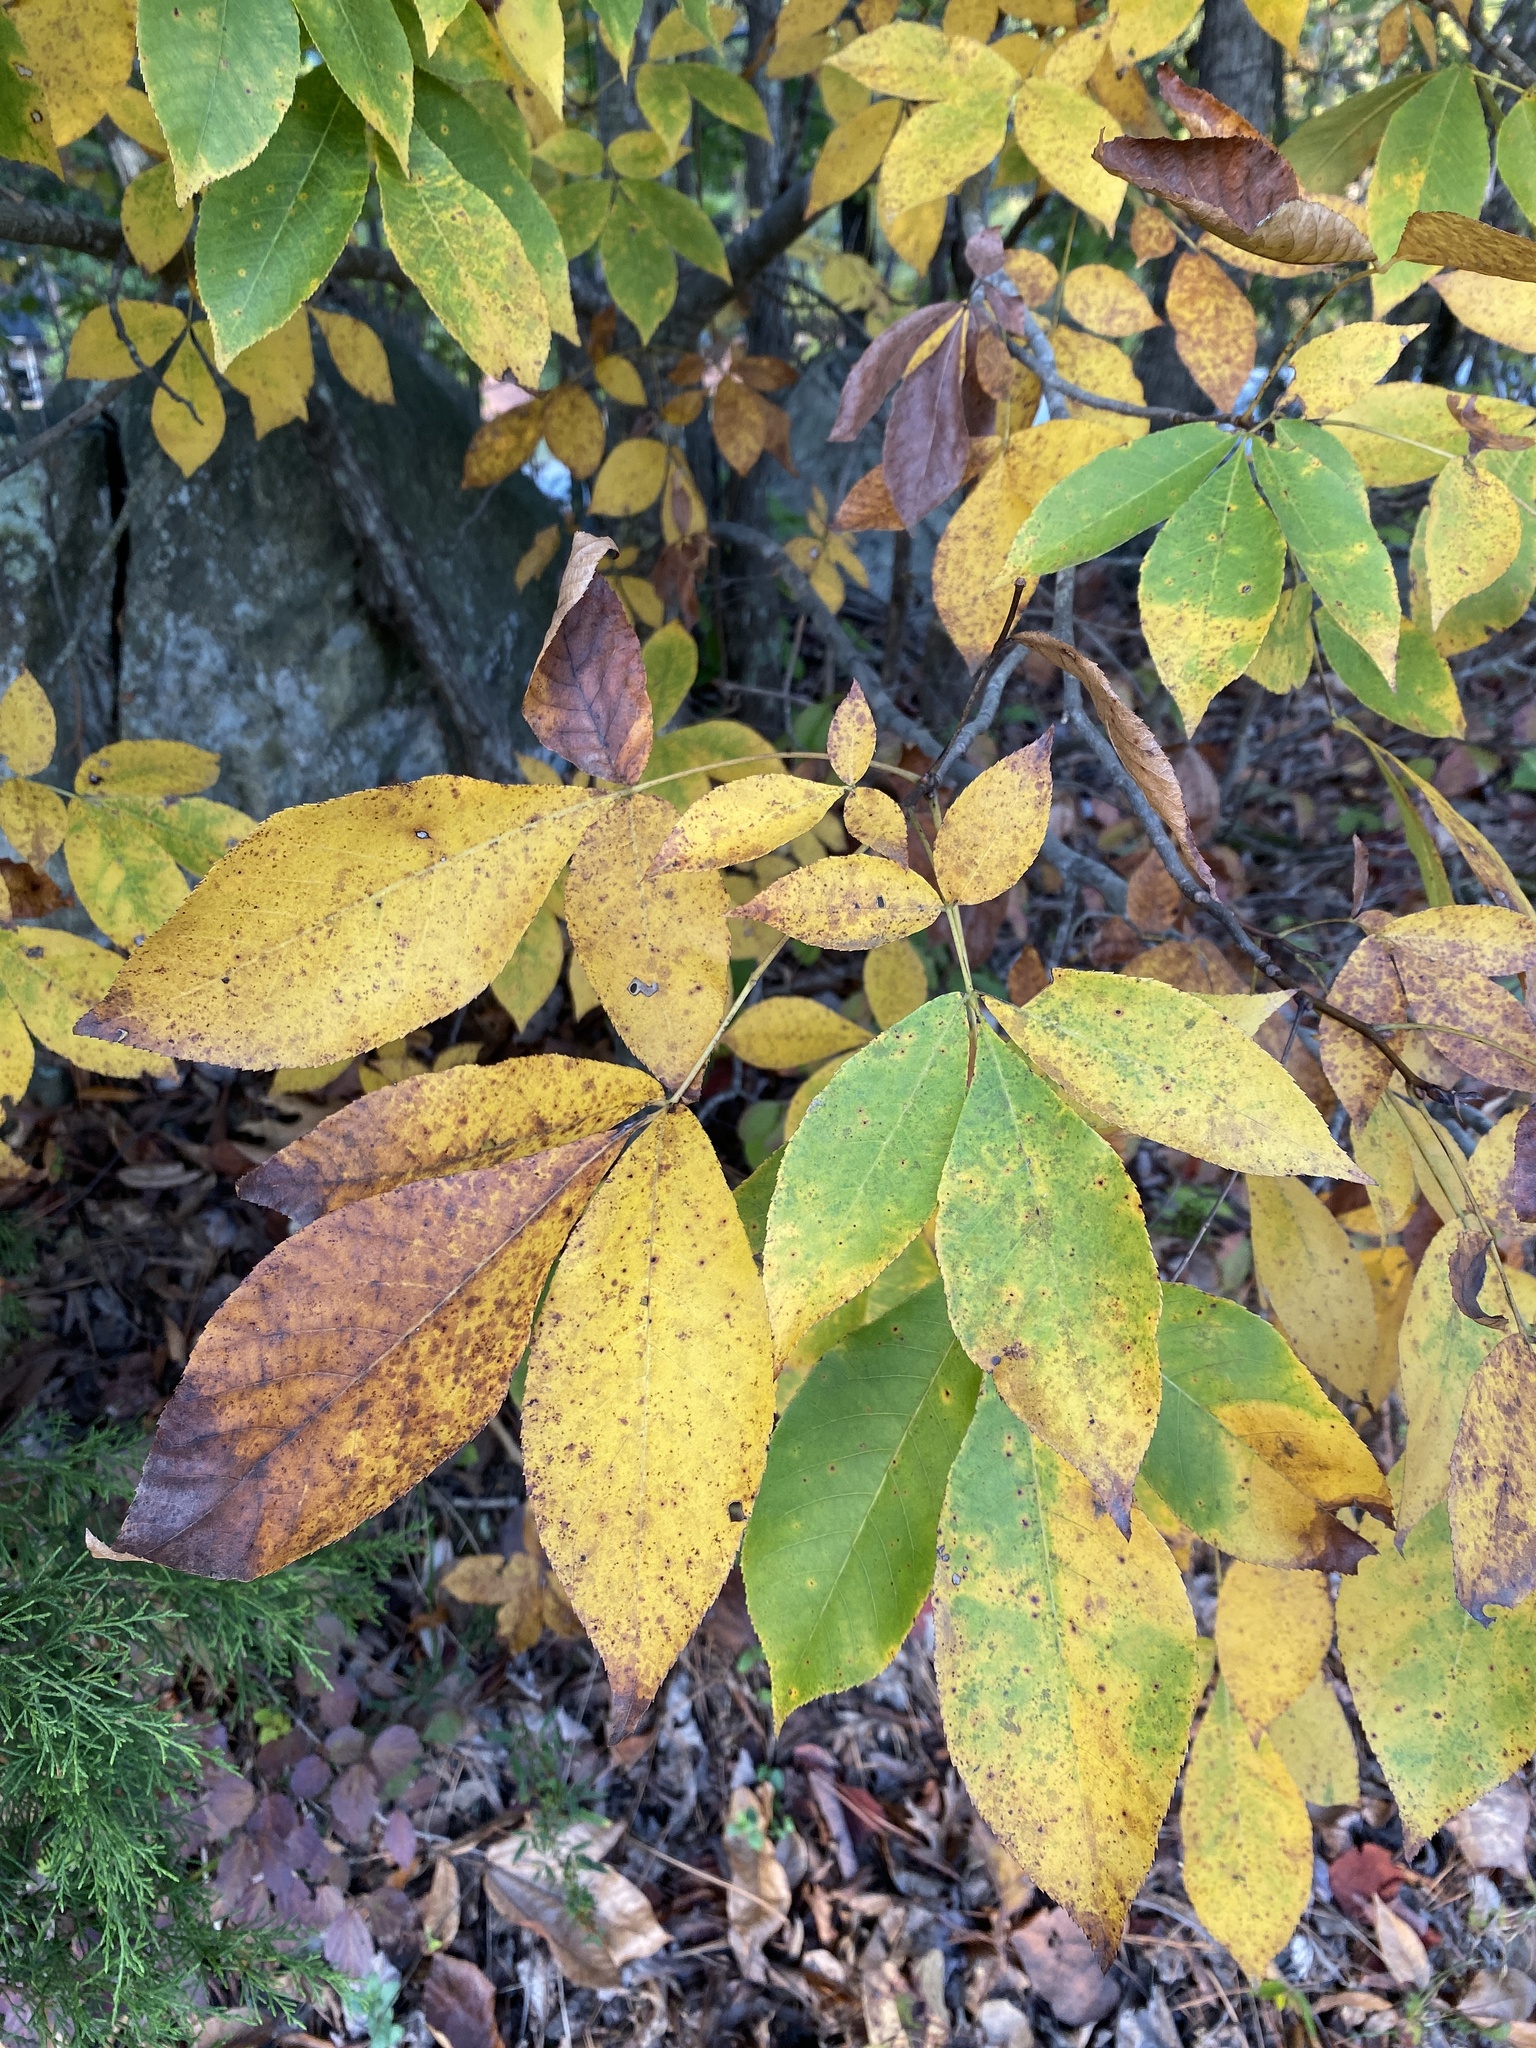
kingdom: Plantae
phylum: Tracheophyta
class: Magnoliopsida
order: Fagales
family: Juglandaceae
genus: Carya
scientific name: Carya glabra
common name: Pignut hickory
